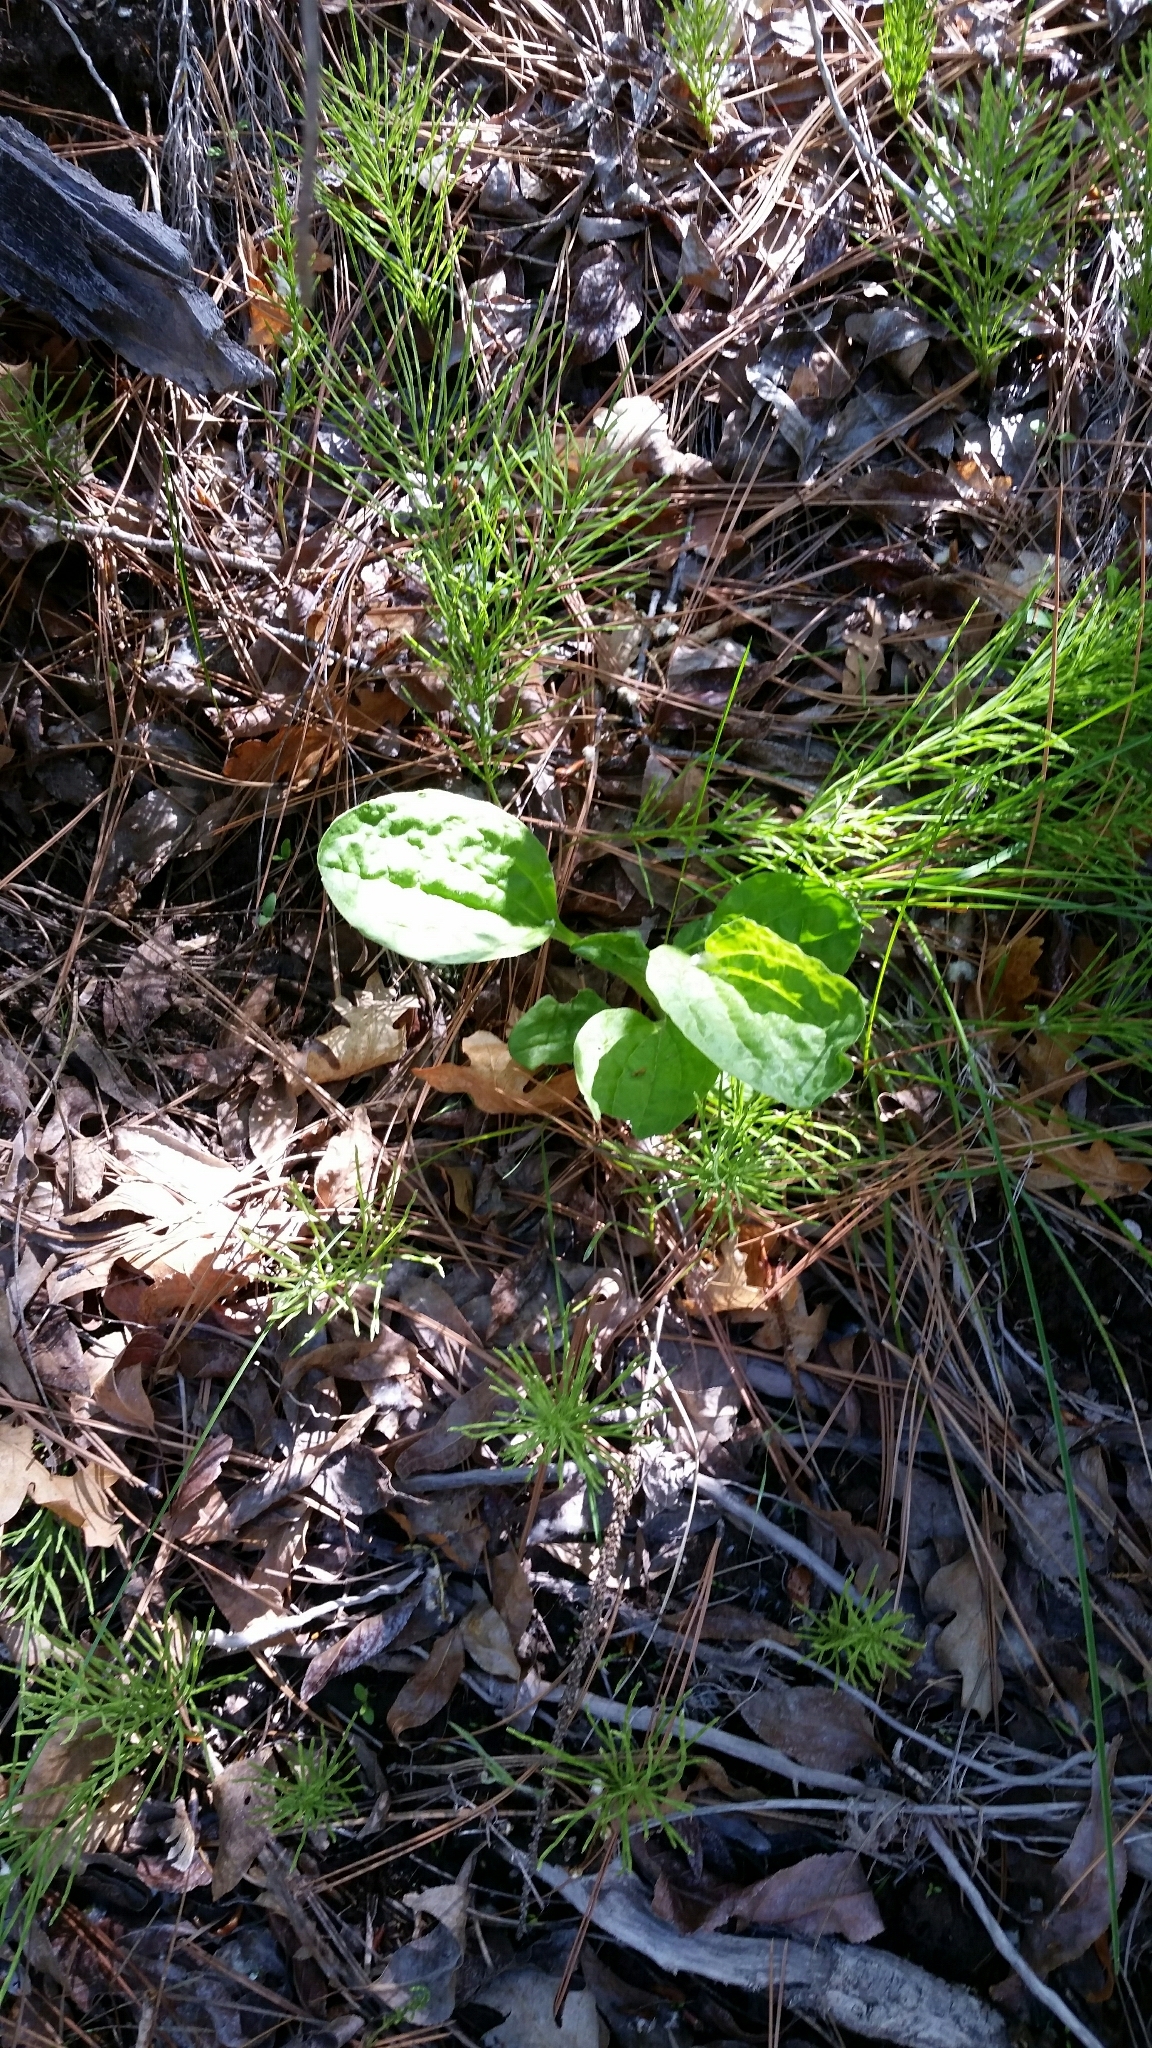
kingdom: Plantae
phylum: Tracheophyta
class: Magnoliopsida
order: Lamiales
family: Plantaginaceae
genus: Plantago
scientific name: Plantago major
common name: Common plantain
